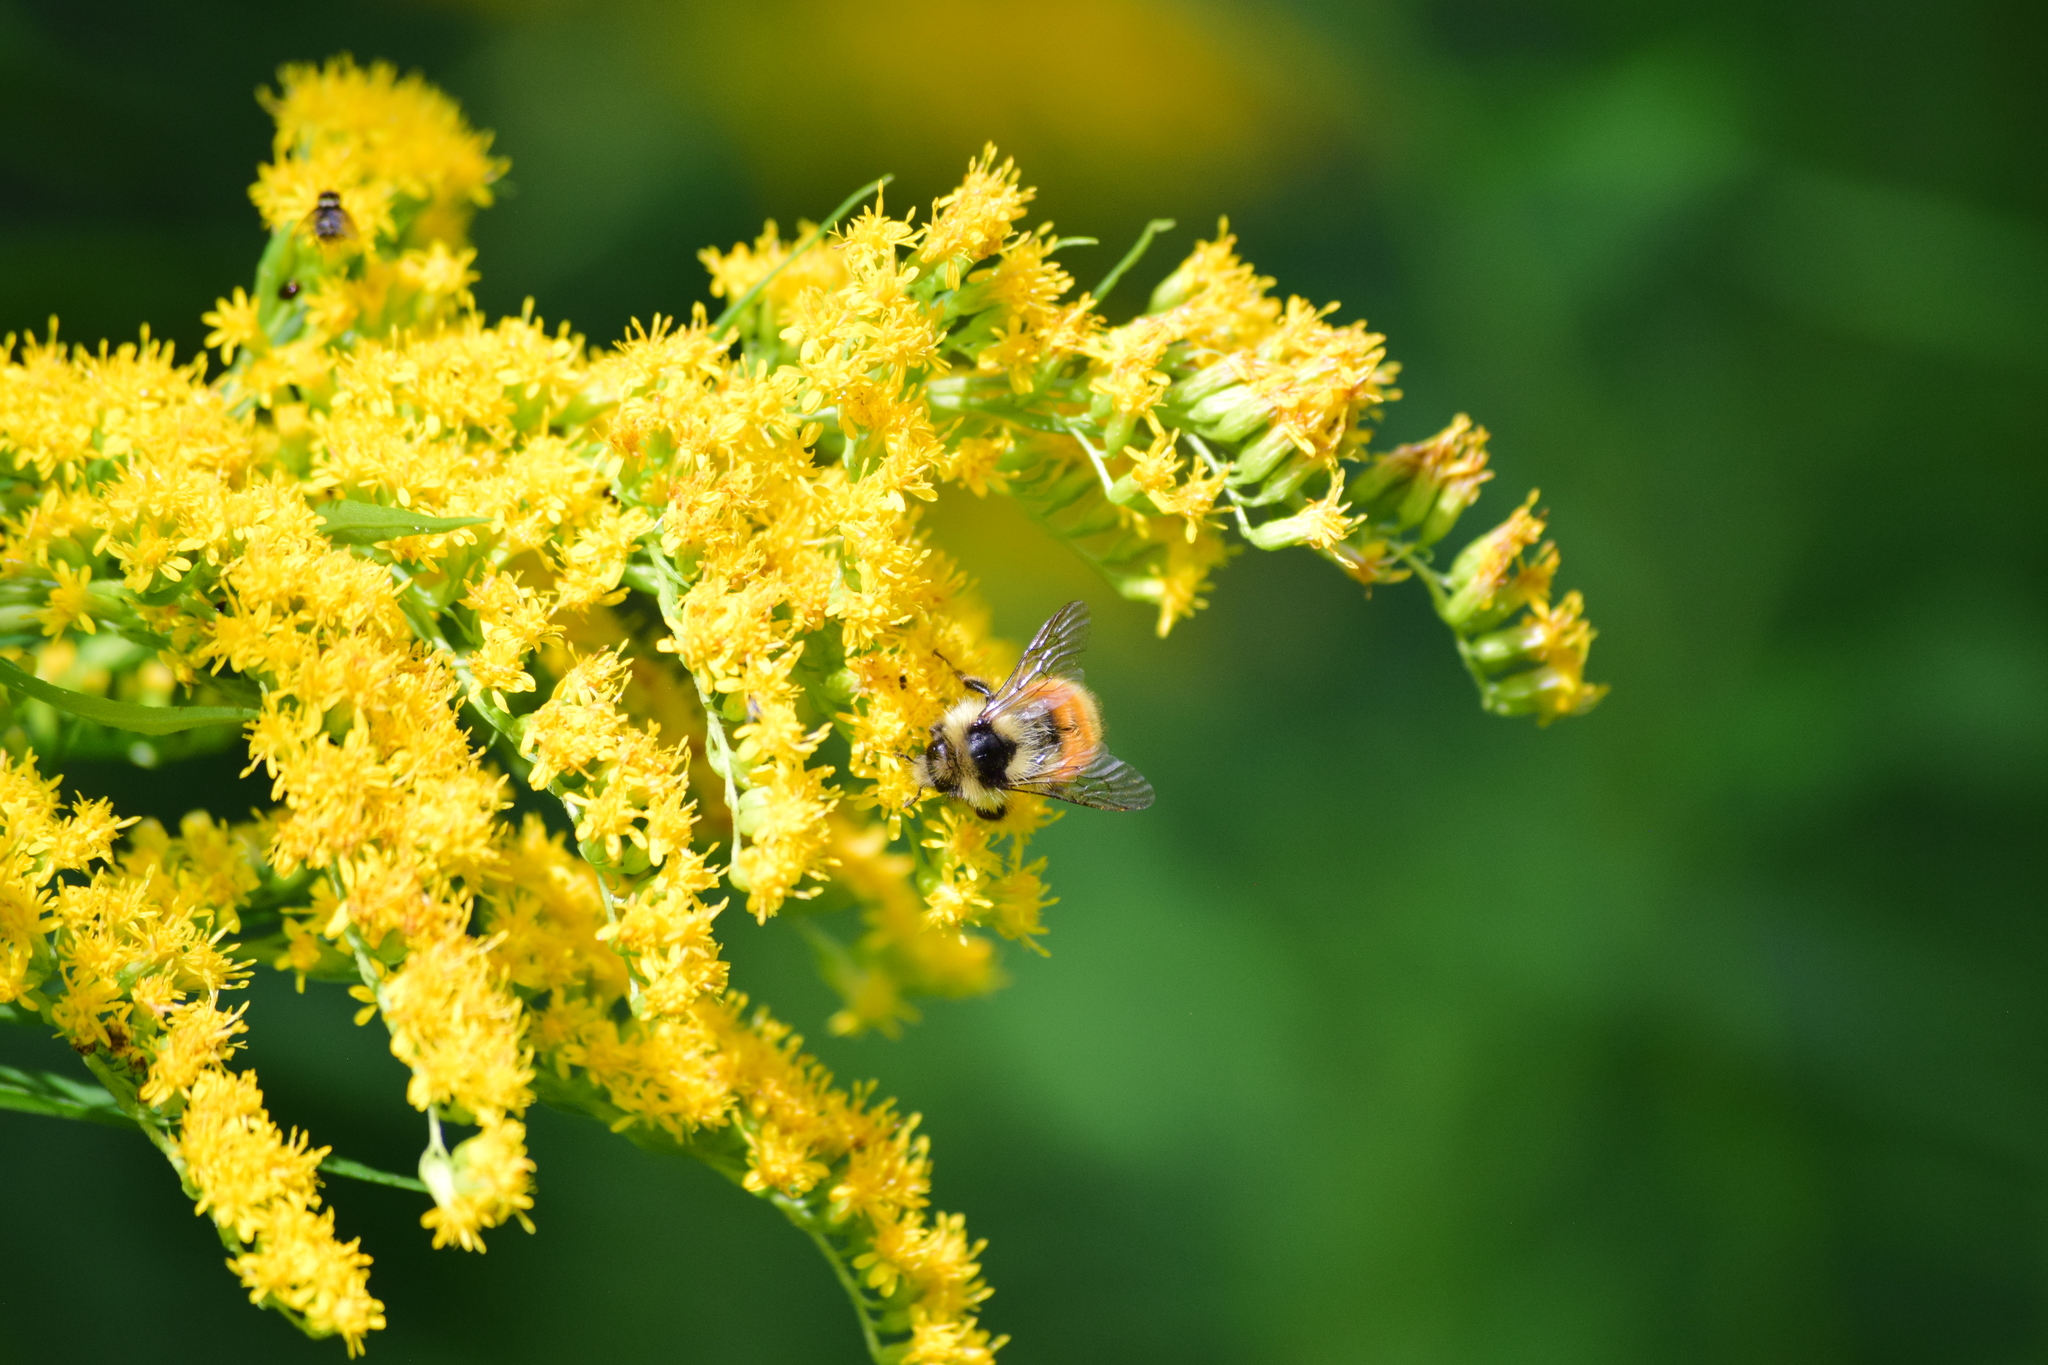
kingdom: Animalia
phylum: Arthropoda
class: Insecta
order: Hymenoptera
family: Apidae
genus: Bombus
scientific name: Bombus ternarius
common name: Tri-colored bumble bee
